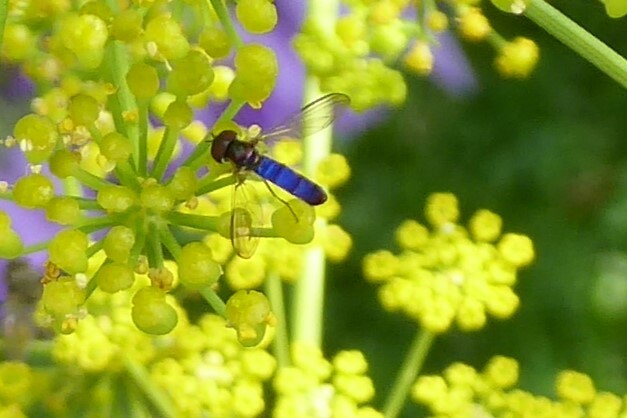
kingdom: Animalia
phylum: Arthropoda
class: Insecta
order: Diptera
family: Syrphidae
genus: Allograpta
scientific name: Allograpta hollowayae
